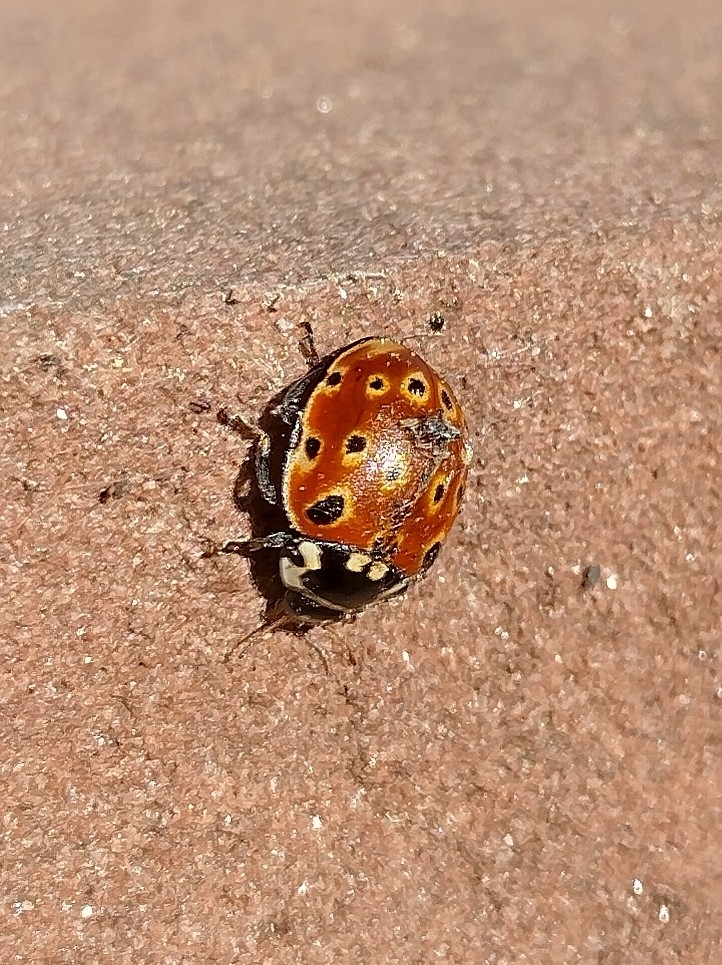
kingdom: Animalia
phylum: Arthropoda
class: Insecta
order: Coleoptera
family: Coccinellidae
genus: Anatis
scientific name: Anatis ocellata
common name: Eyed ladybird
